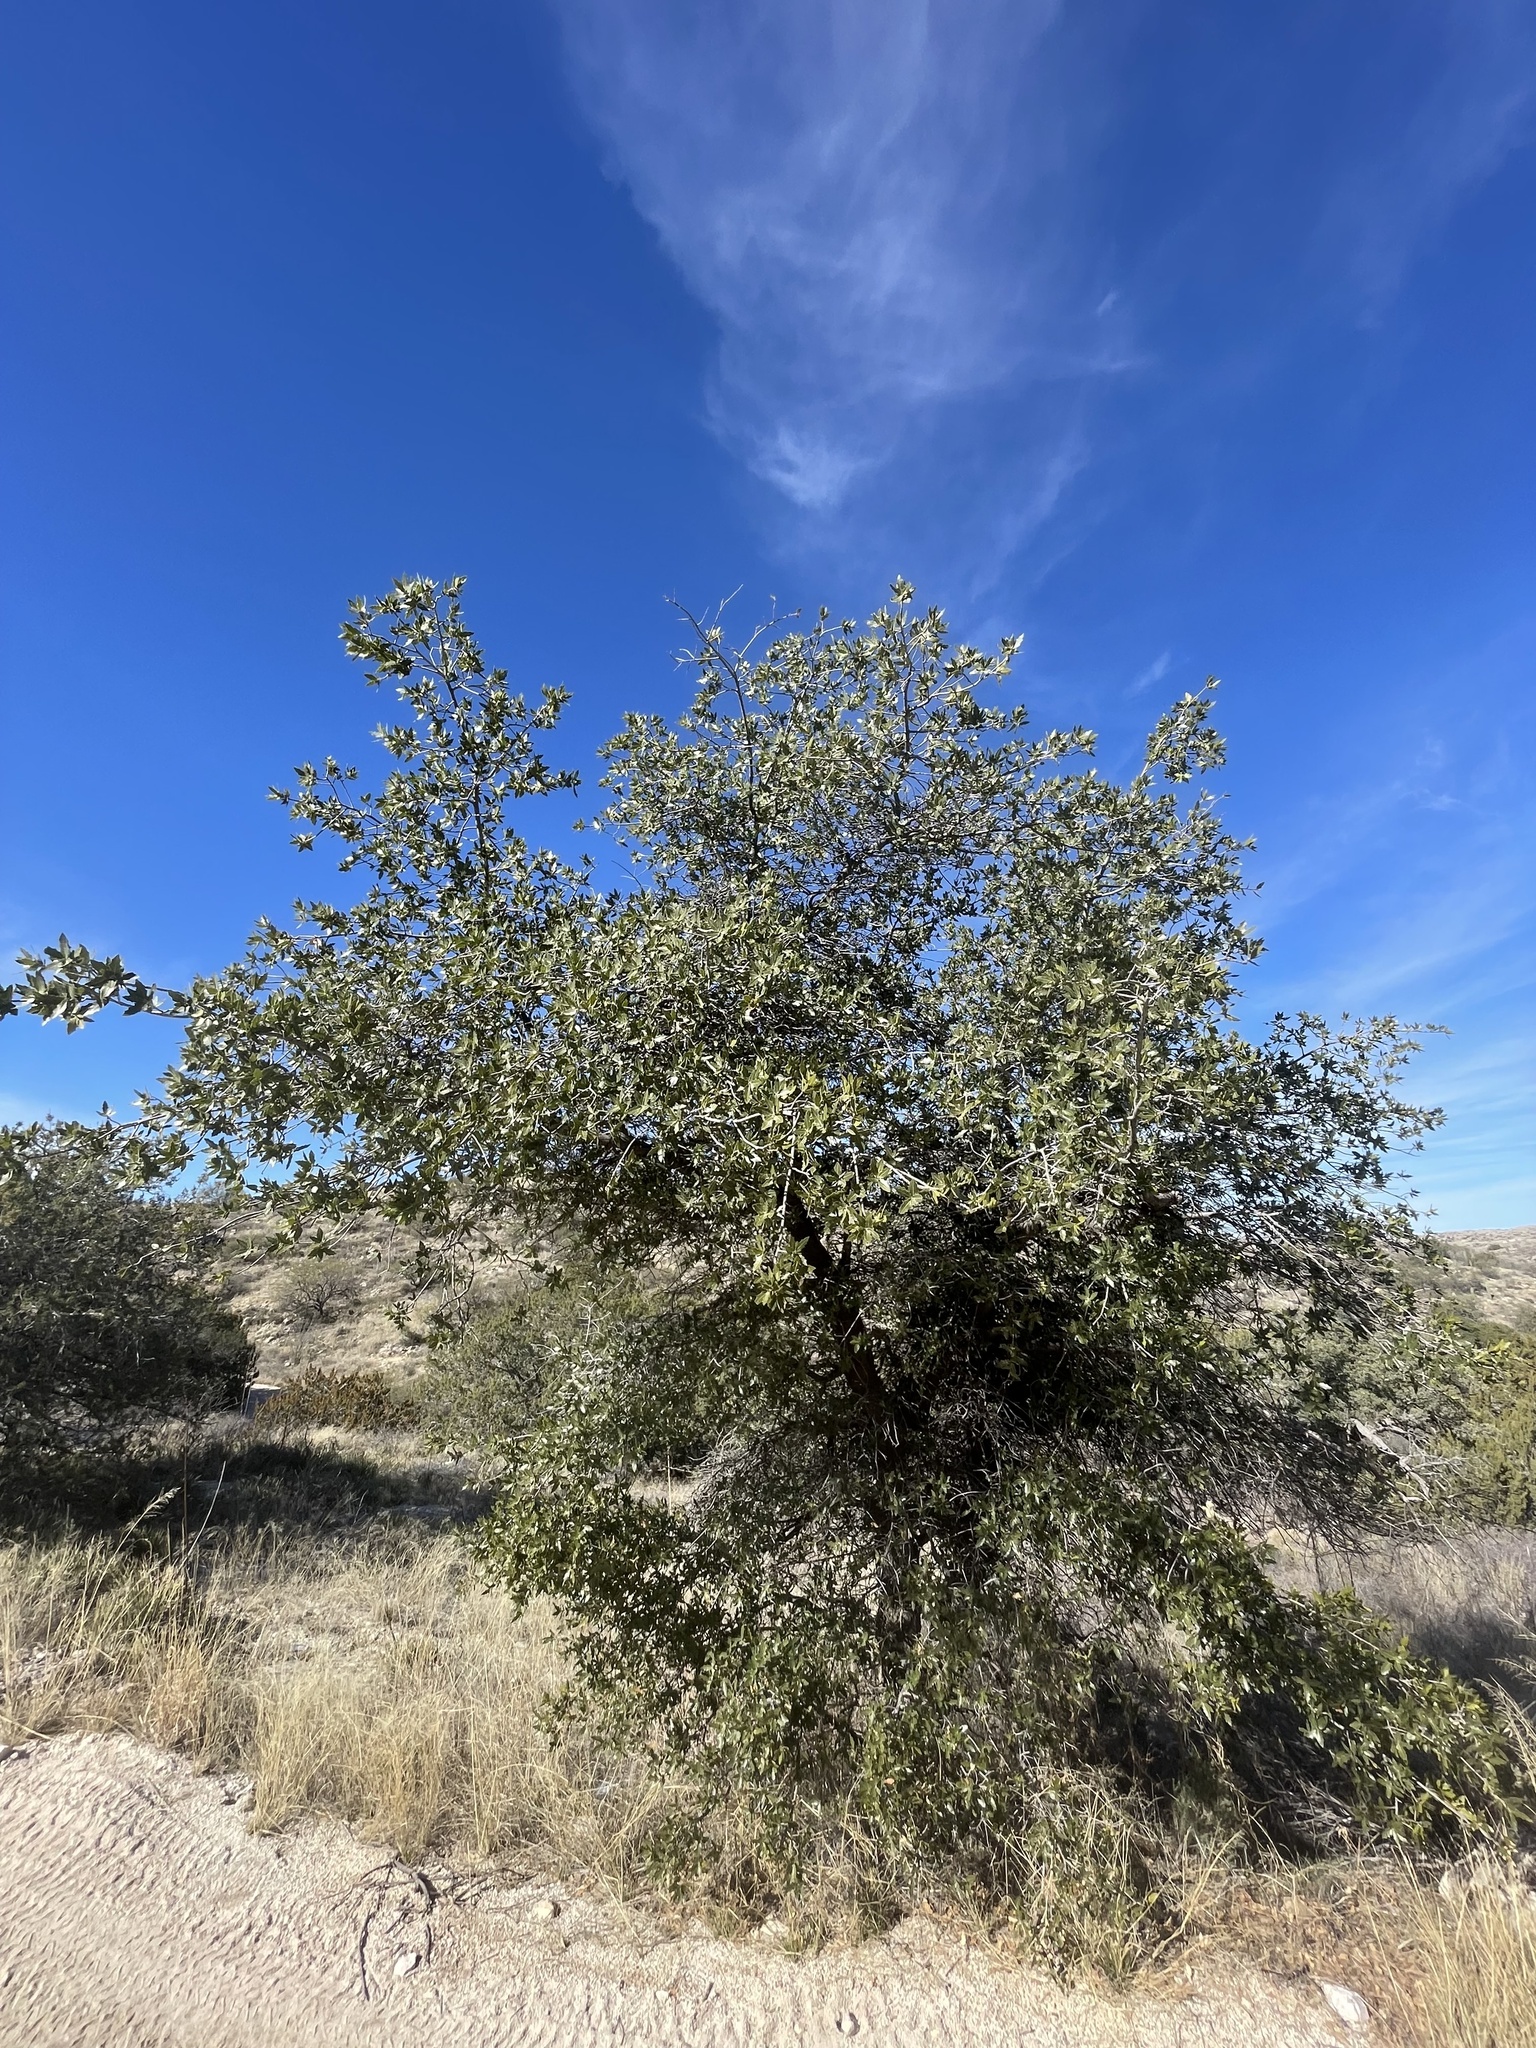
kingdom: Plantae
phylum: Tracheophyta
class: Magnoliopsida
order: Fagales
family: Fagaceae
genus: Quercus
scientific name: Quercus emoryi
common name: Emory oak
